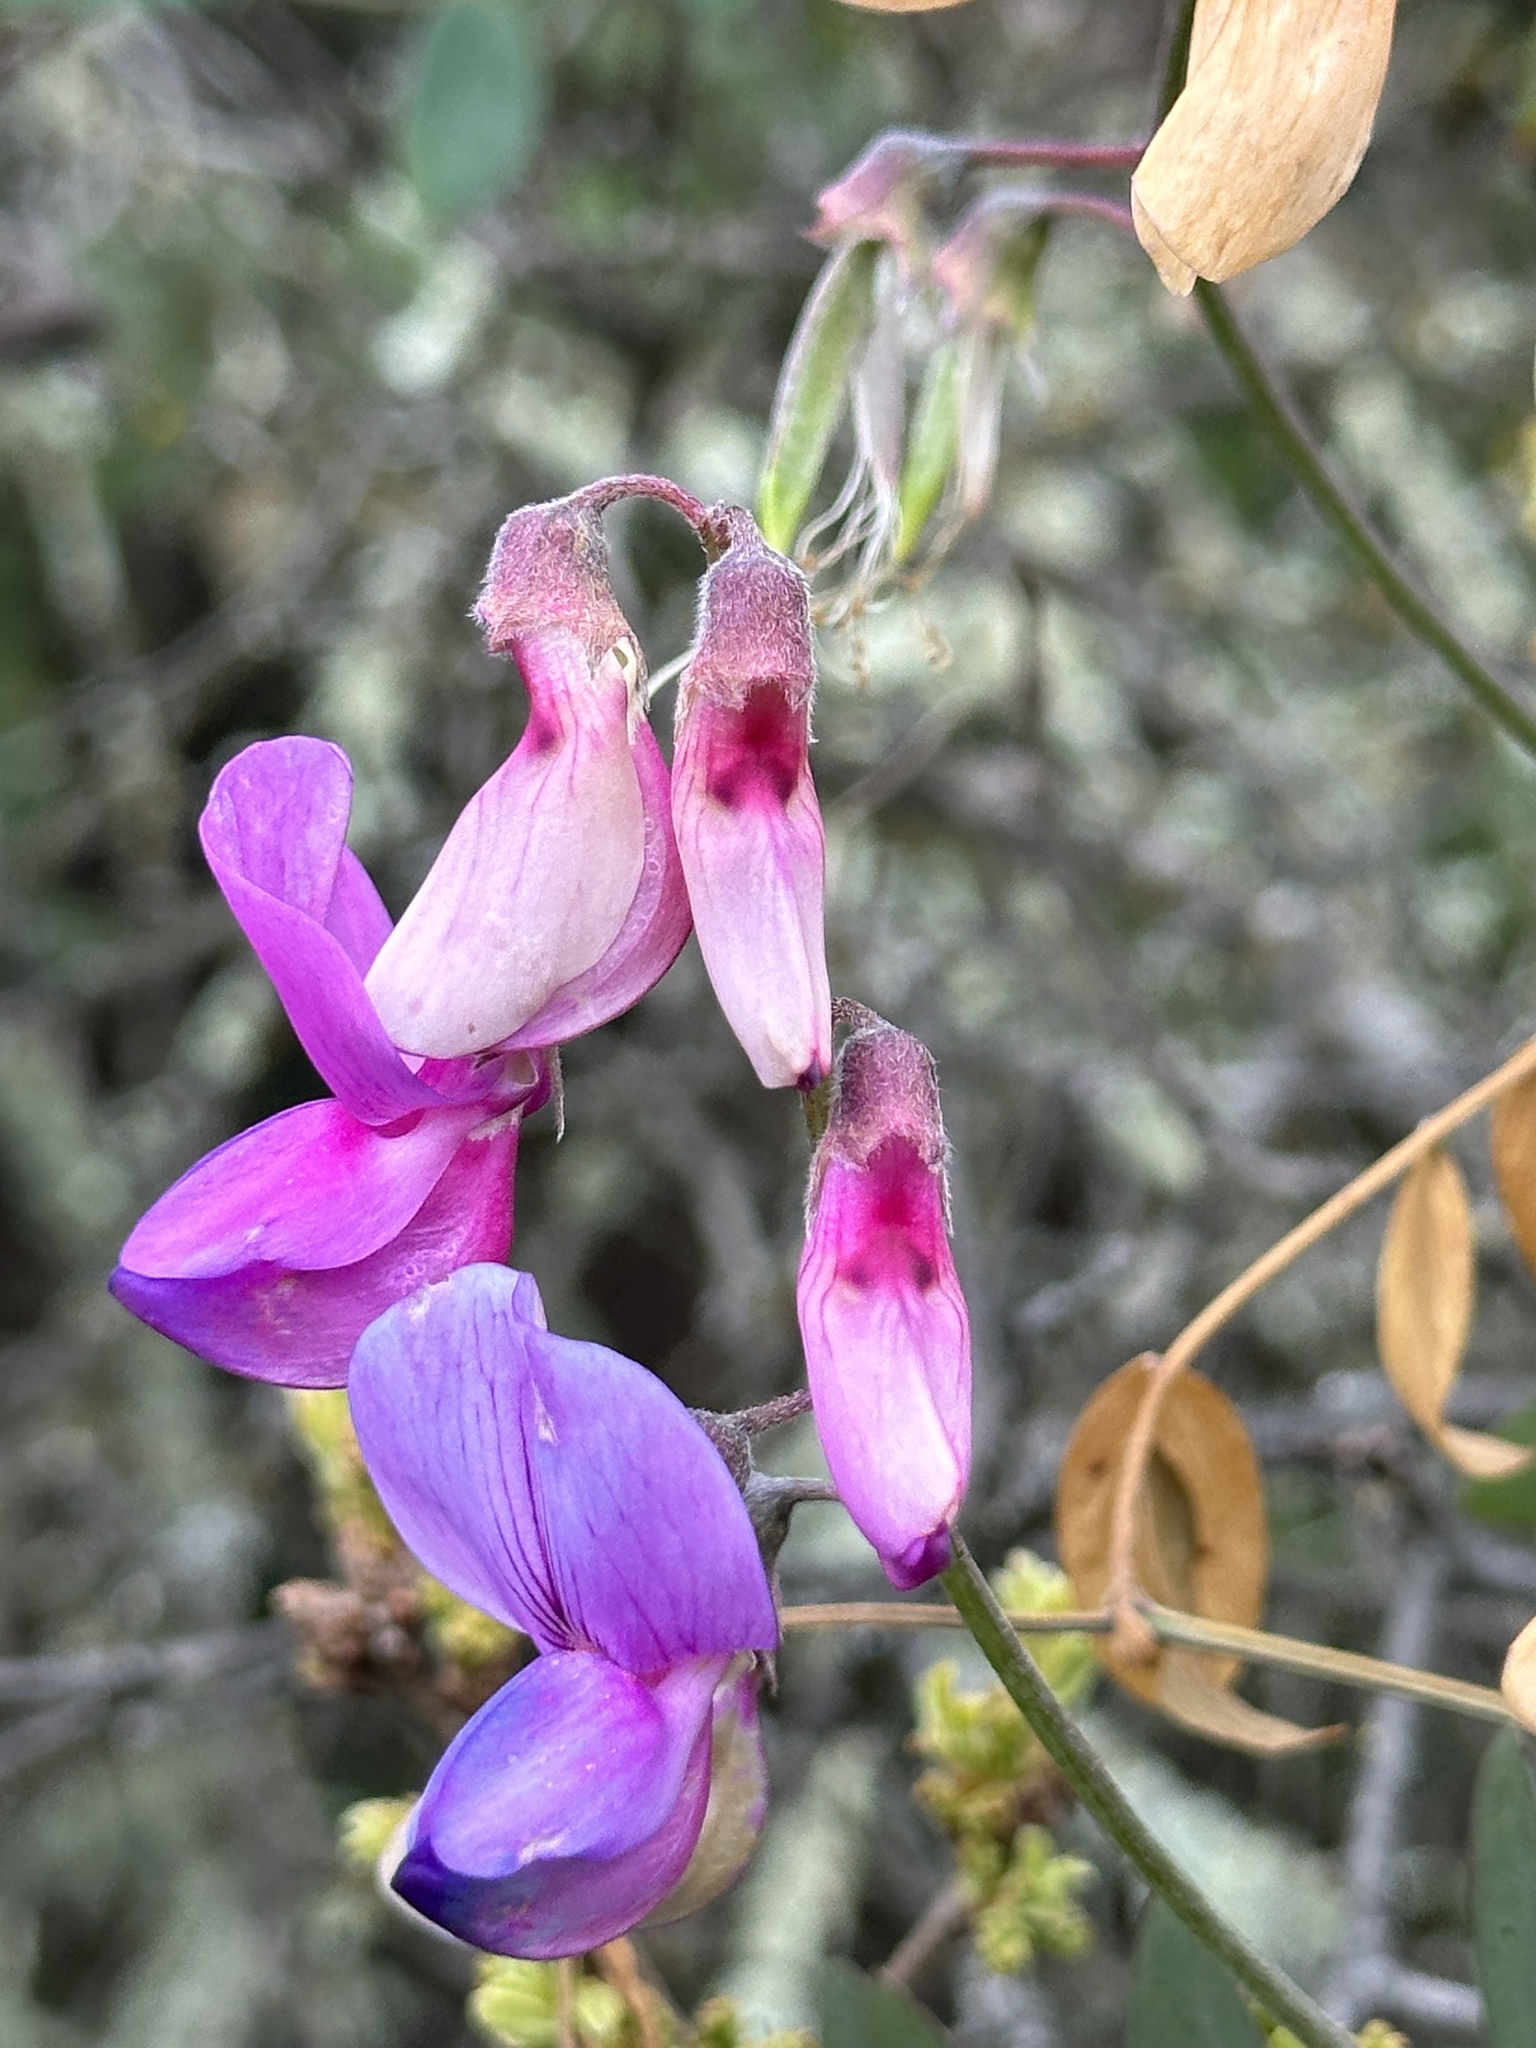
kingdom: Plantae
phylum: Tracheophyta
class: Magnoliopsida
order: Fabales
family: Fabaceae
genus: Lathyrus
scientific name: Lathyrus vestitus
